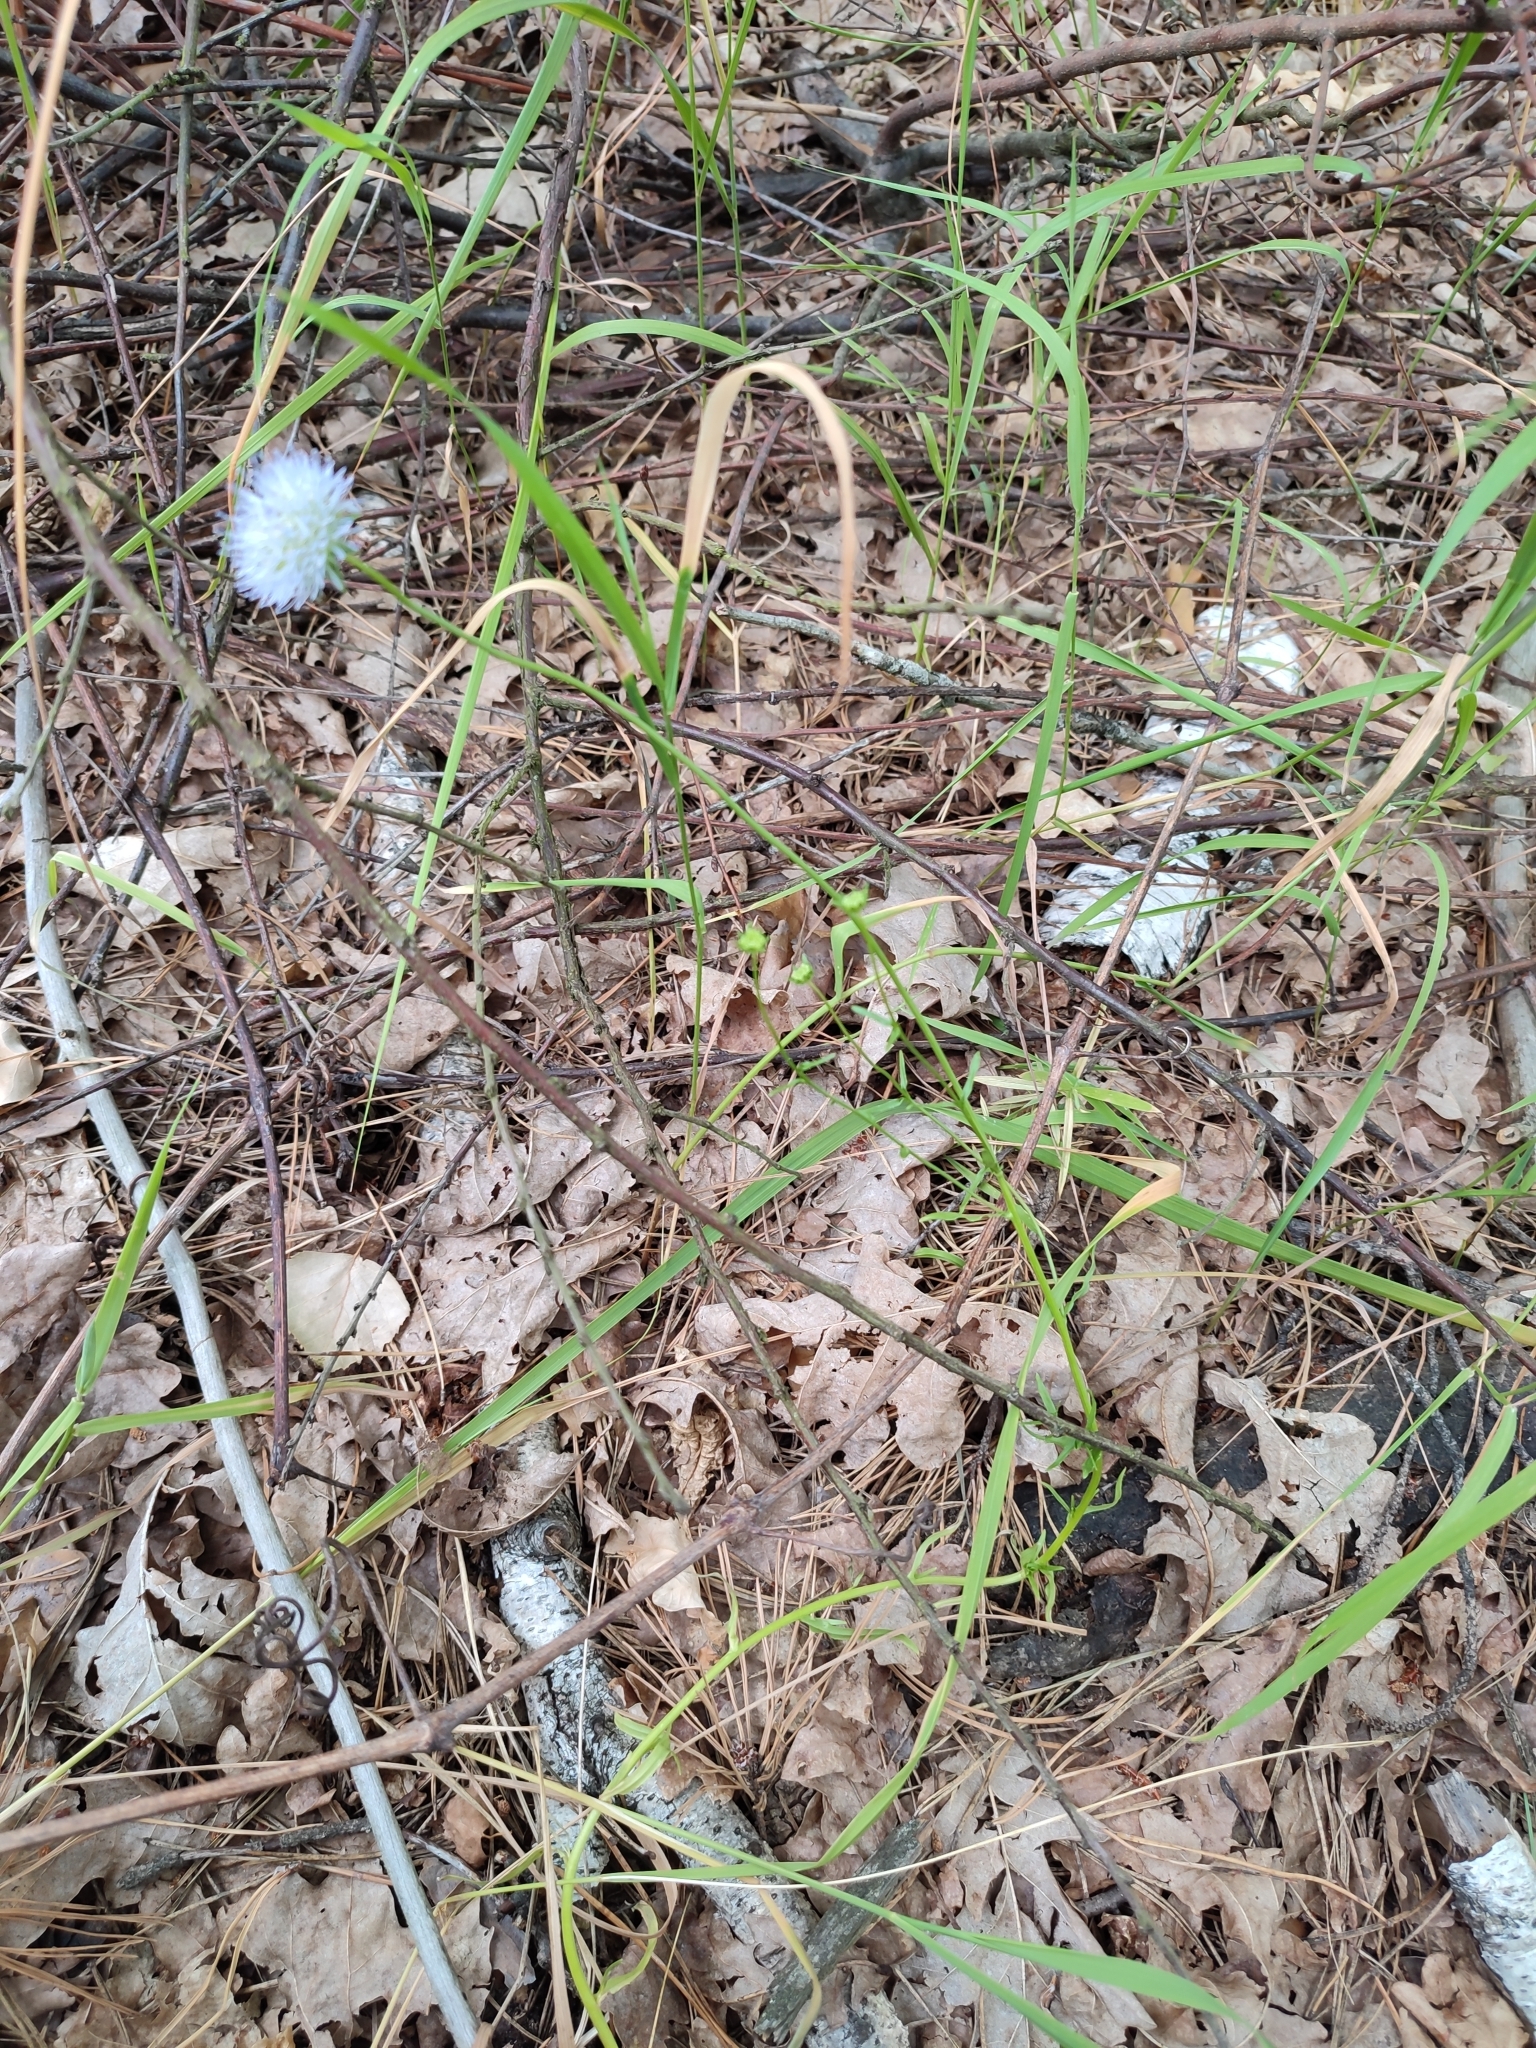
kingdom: Plantae
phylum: Tracheophyta
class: Magnoliopsida
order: Asterales
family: Campanulaceae
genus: Jasione
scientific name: Jasione montana
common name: Sheep's-bit
